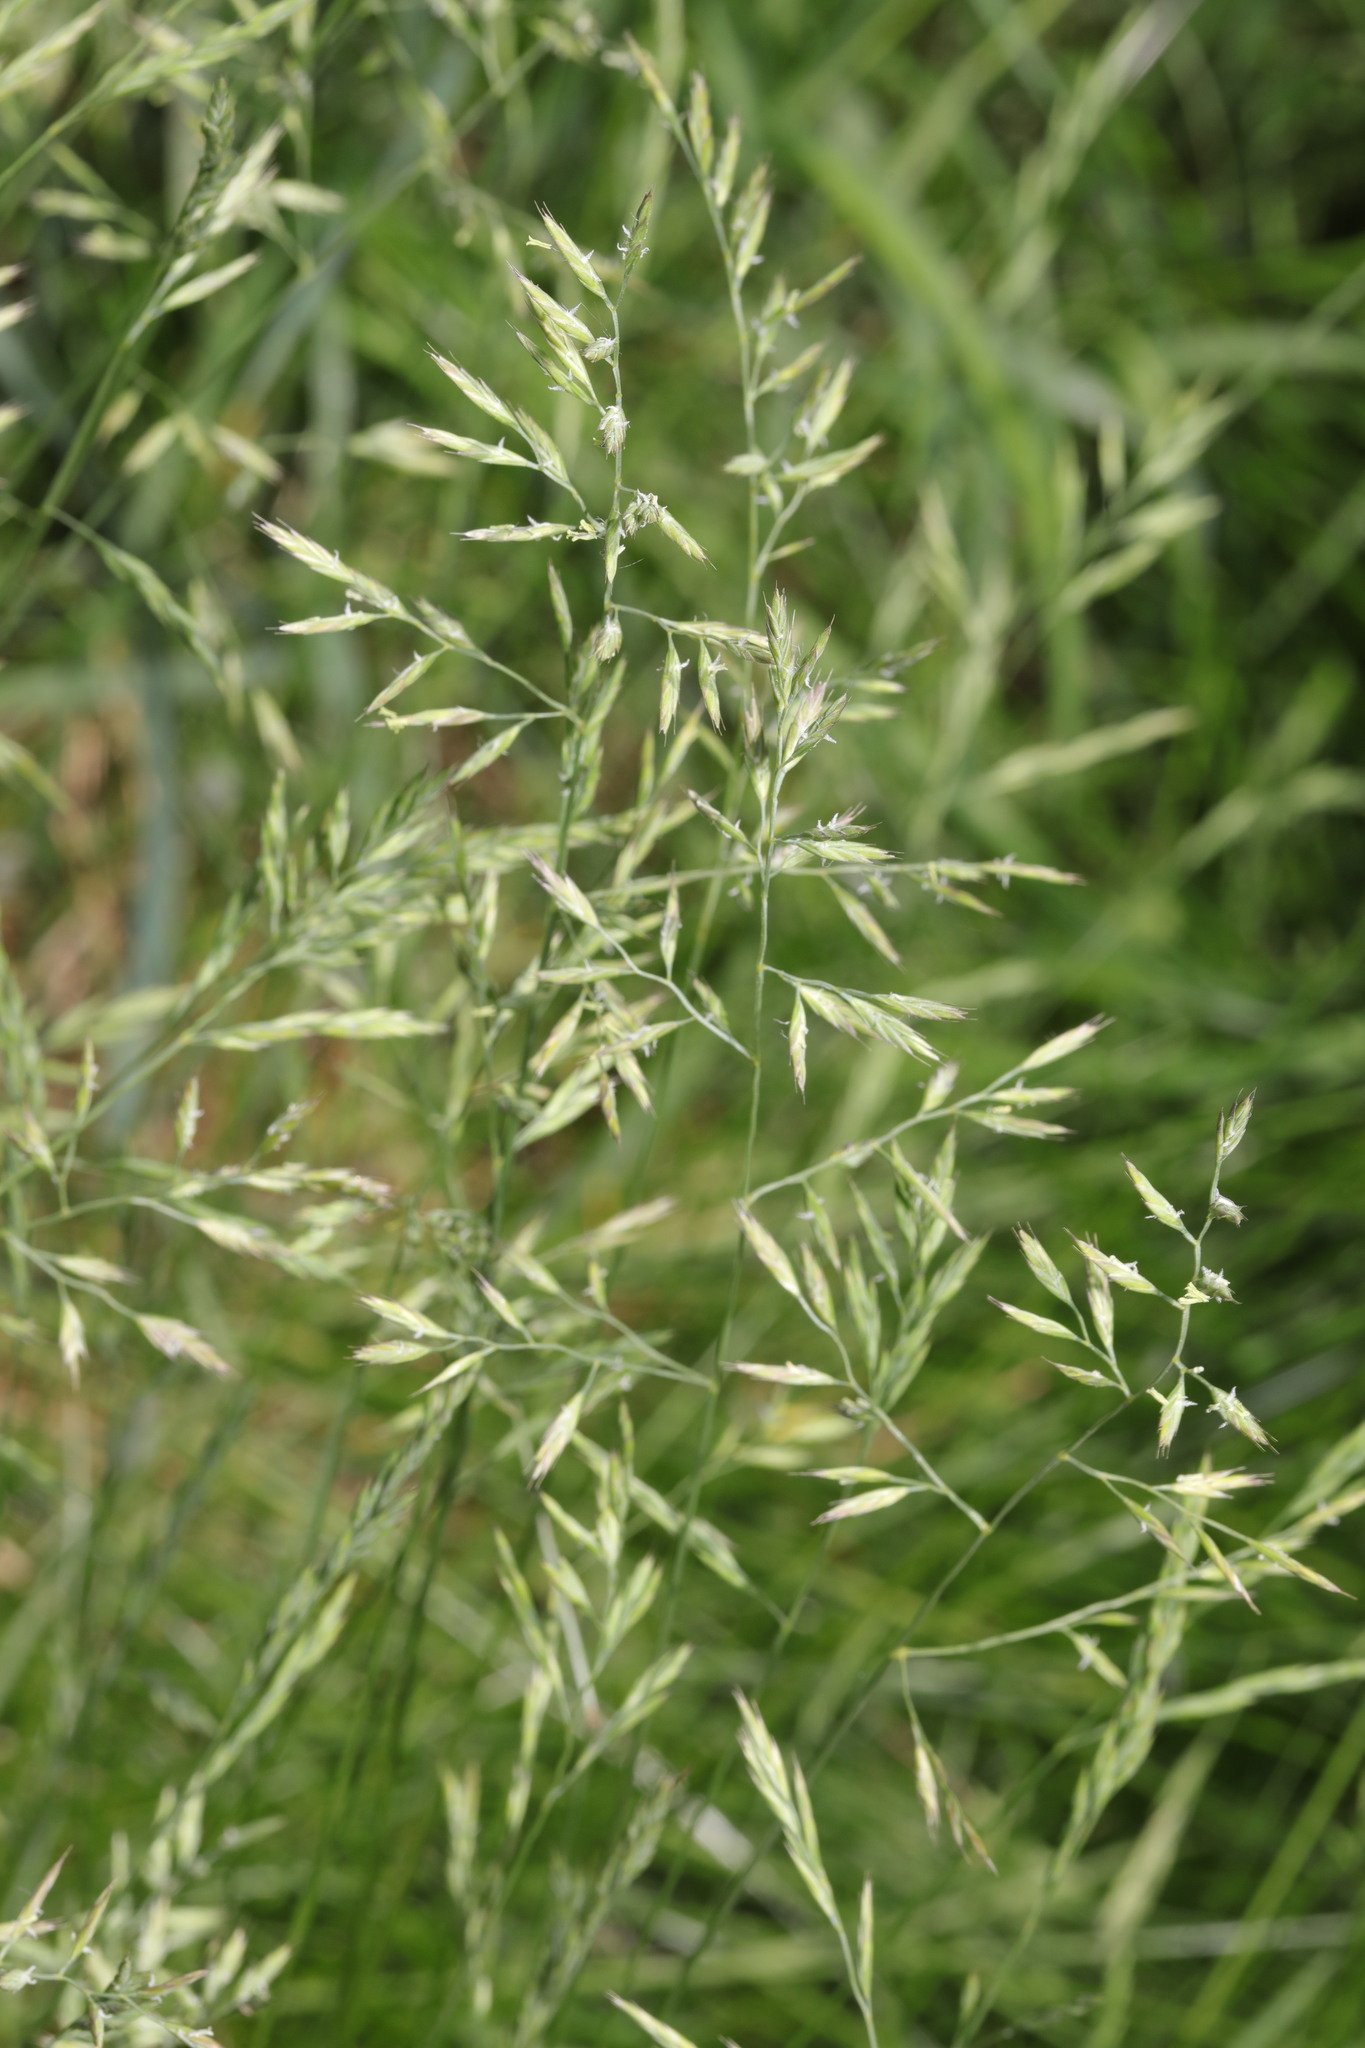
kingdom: Plantae
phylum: Tracheophyta
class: Liliopsida
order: Poales
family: Poaceae
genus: Festuca
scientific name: Festuca rubra
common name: Red fescue
